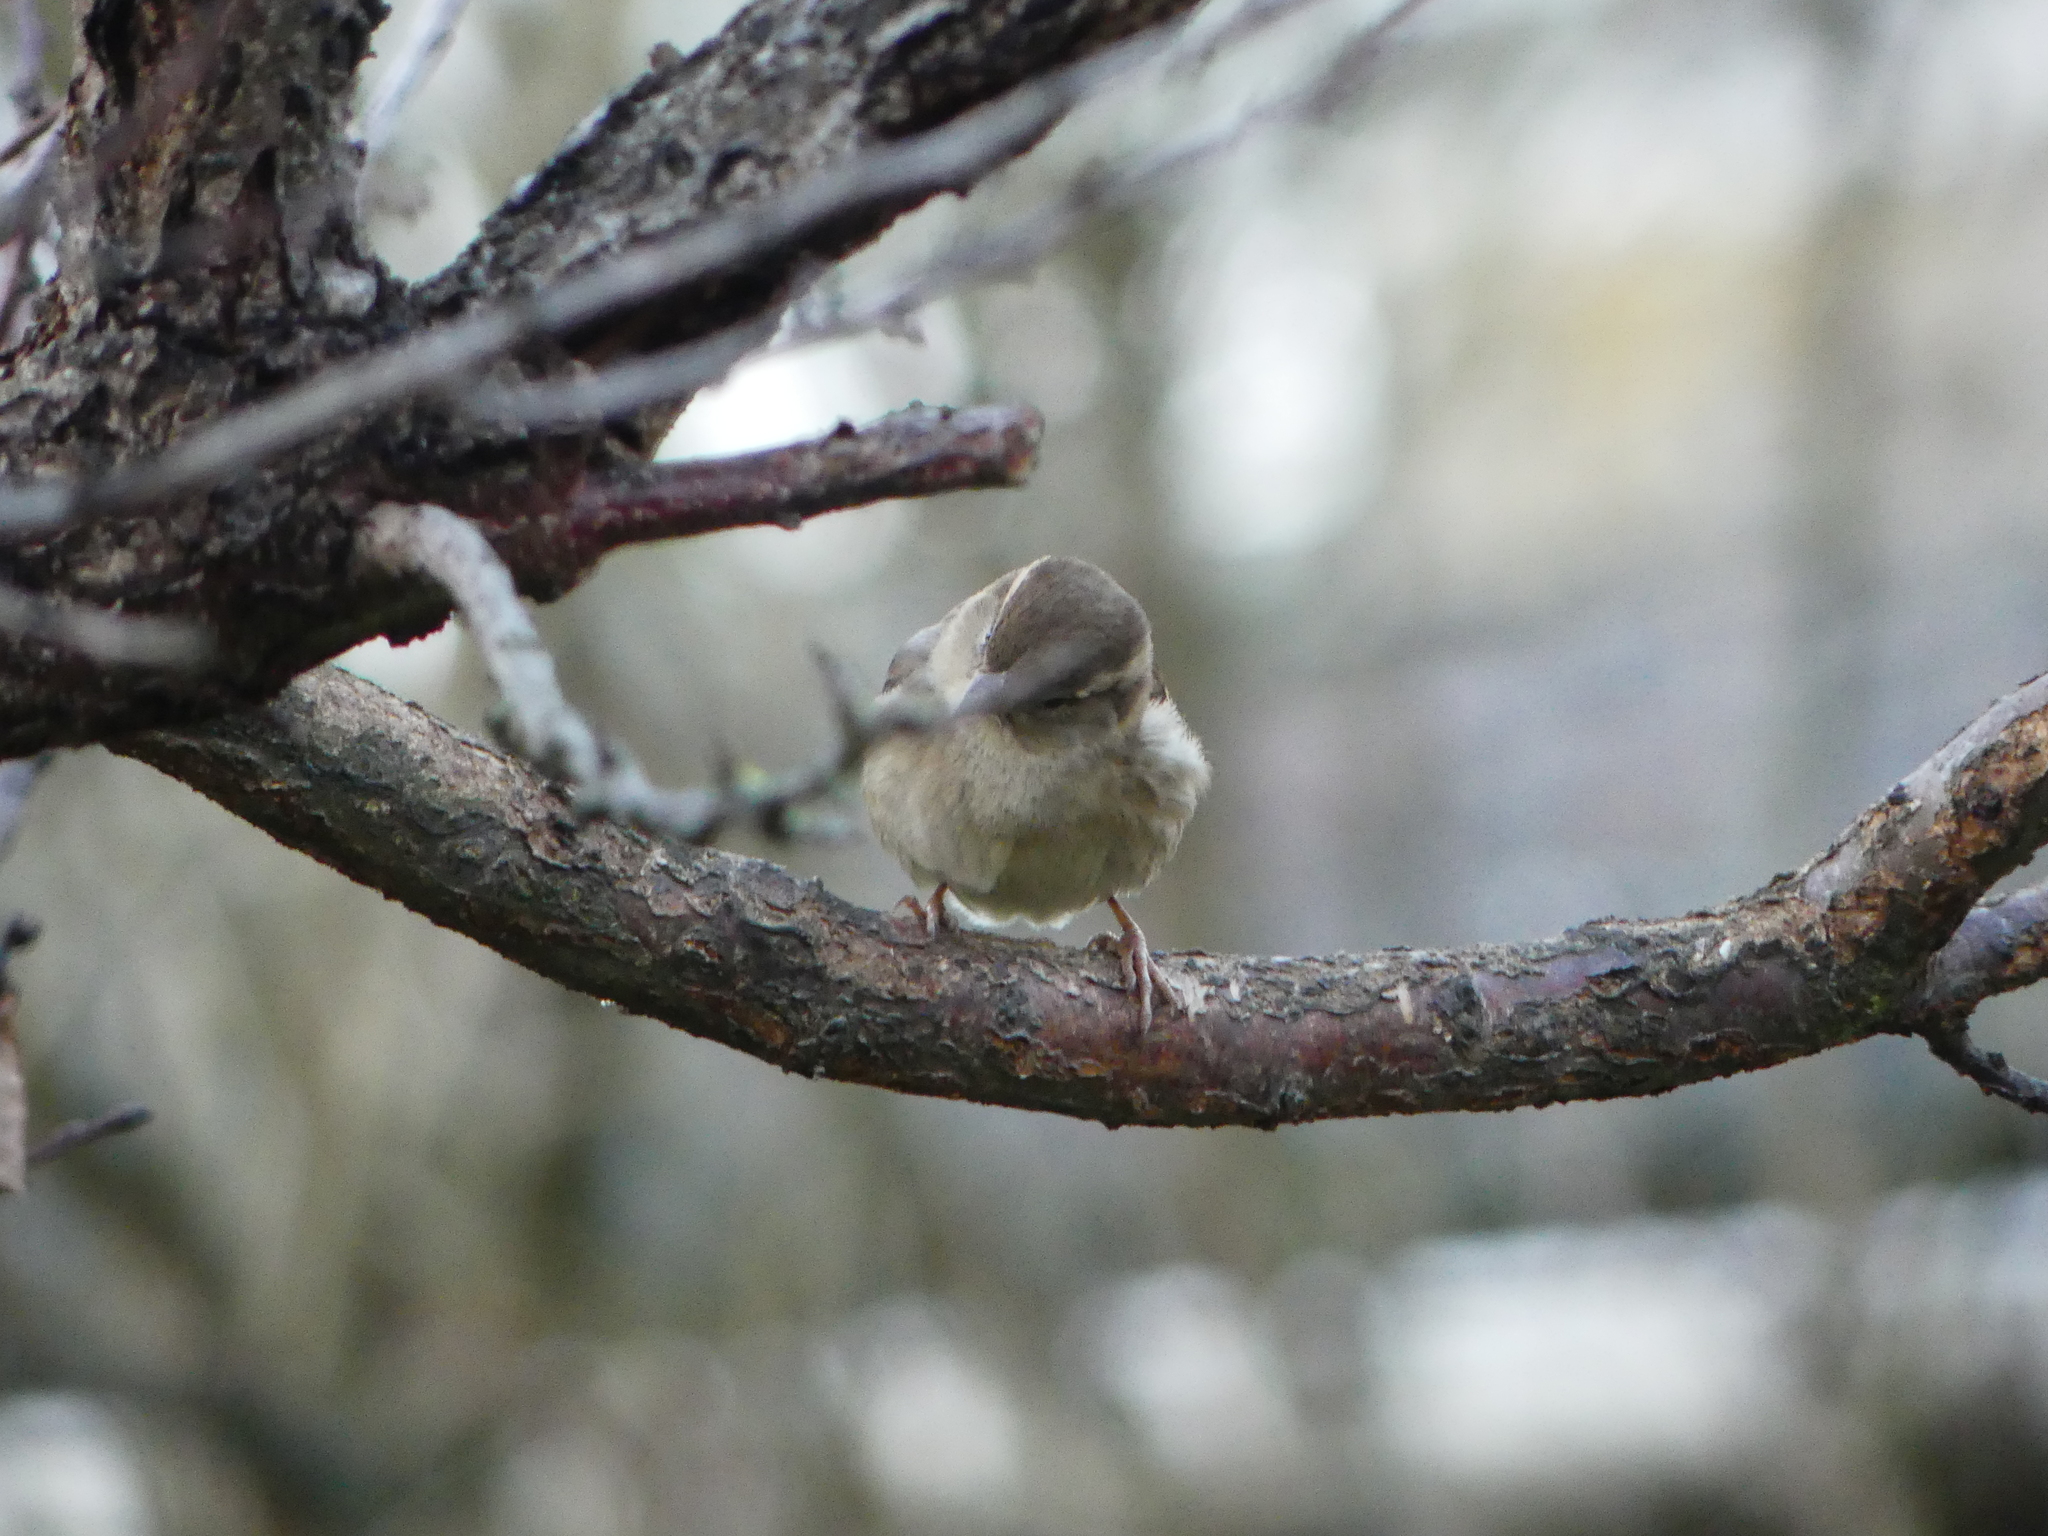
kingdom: Animalia
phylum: Chordata
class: Aves
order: Passeriformes
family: Passeridae
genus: Passer
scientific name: Passer domesticus
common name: House sparrow
